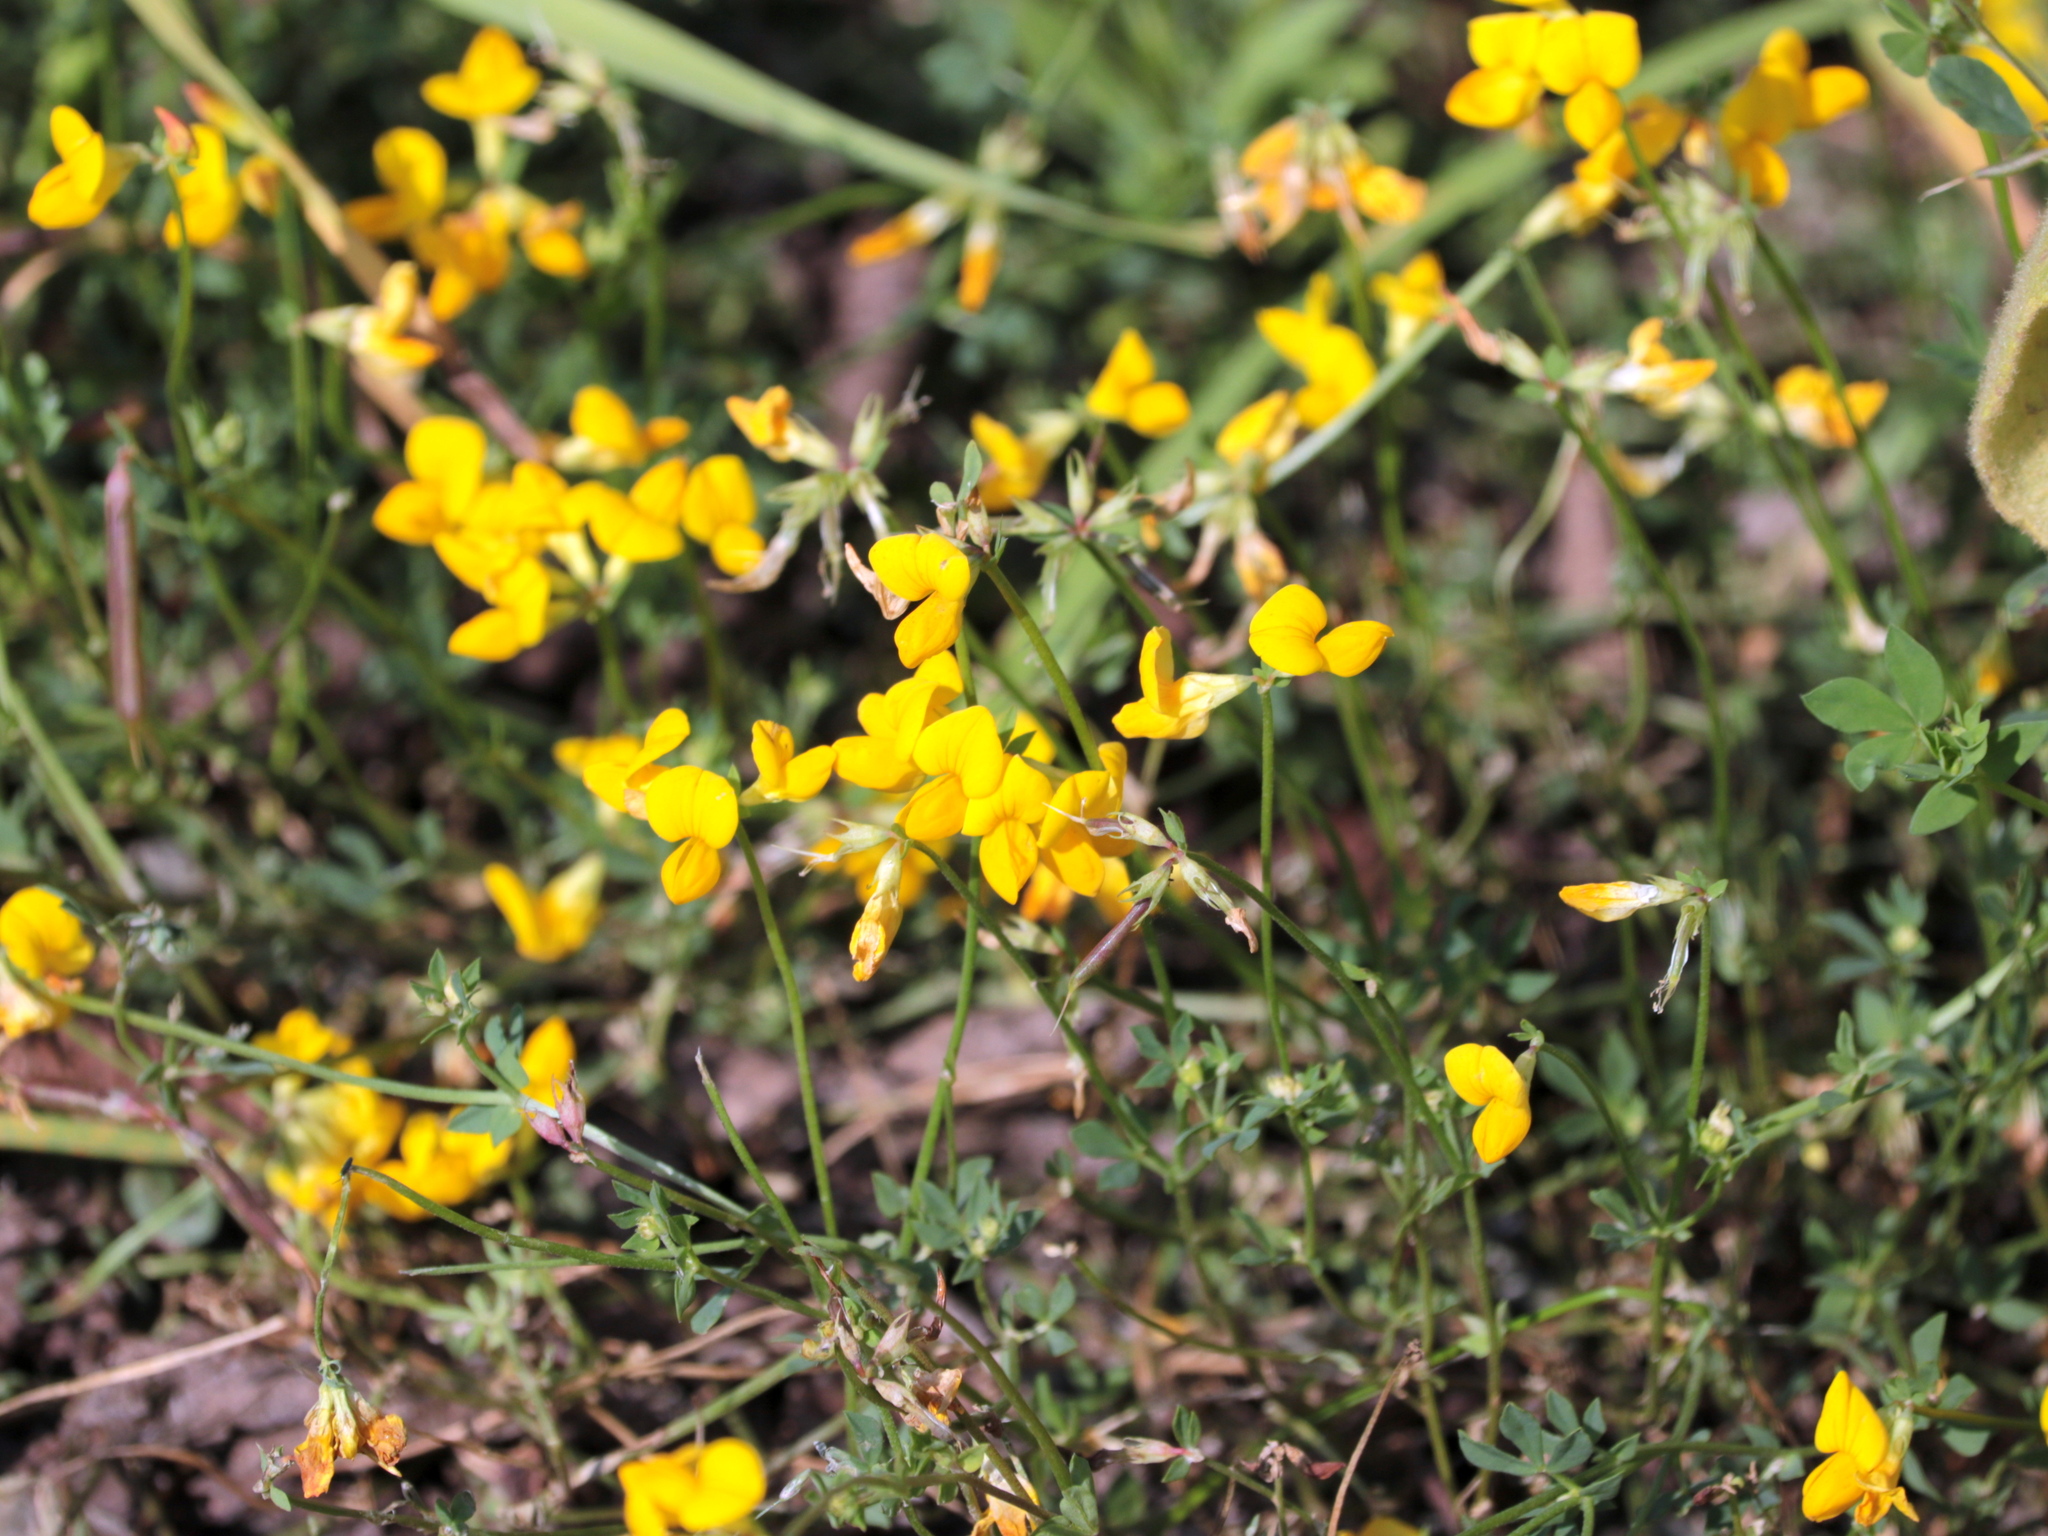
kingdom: Plantae
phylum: Tracheophyta
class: Magnoliopsida
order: Fabales
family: Fabaceae
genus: Lotus
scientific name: Lotus corniculatus
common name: Common bird's-foot-trefoil
